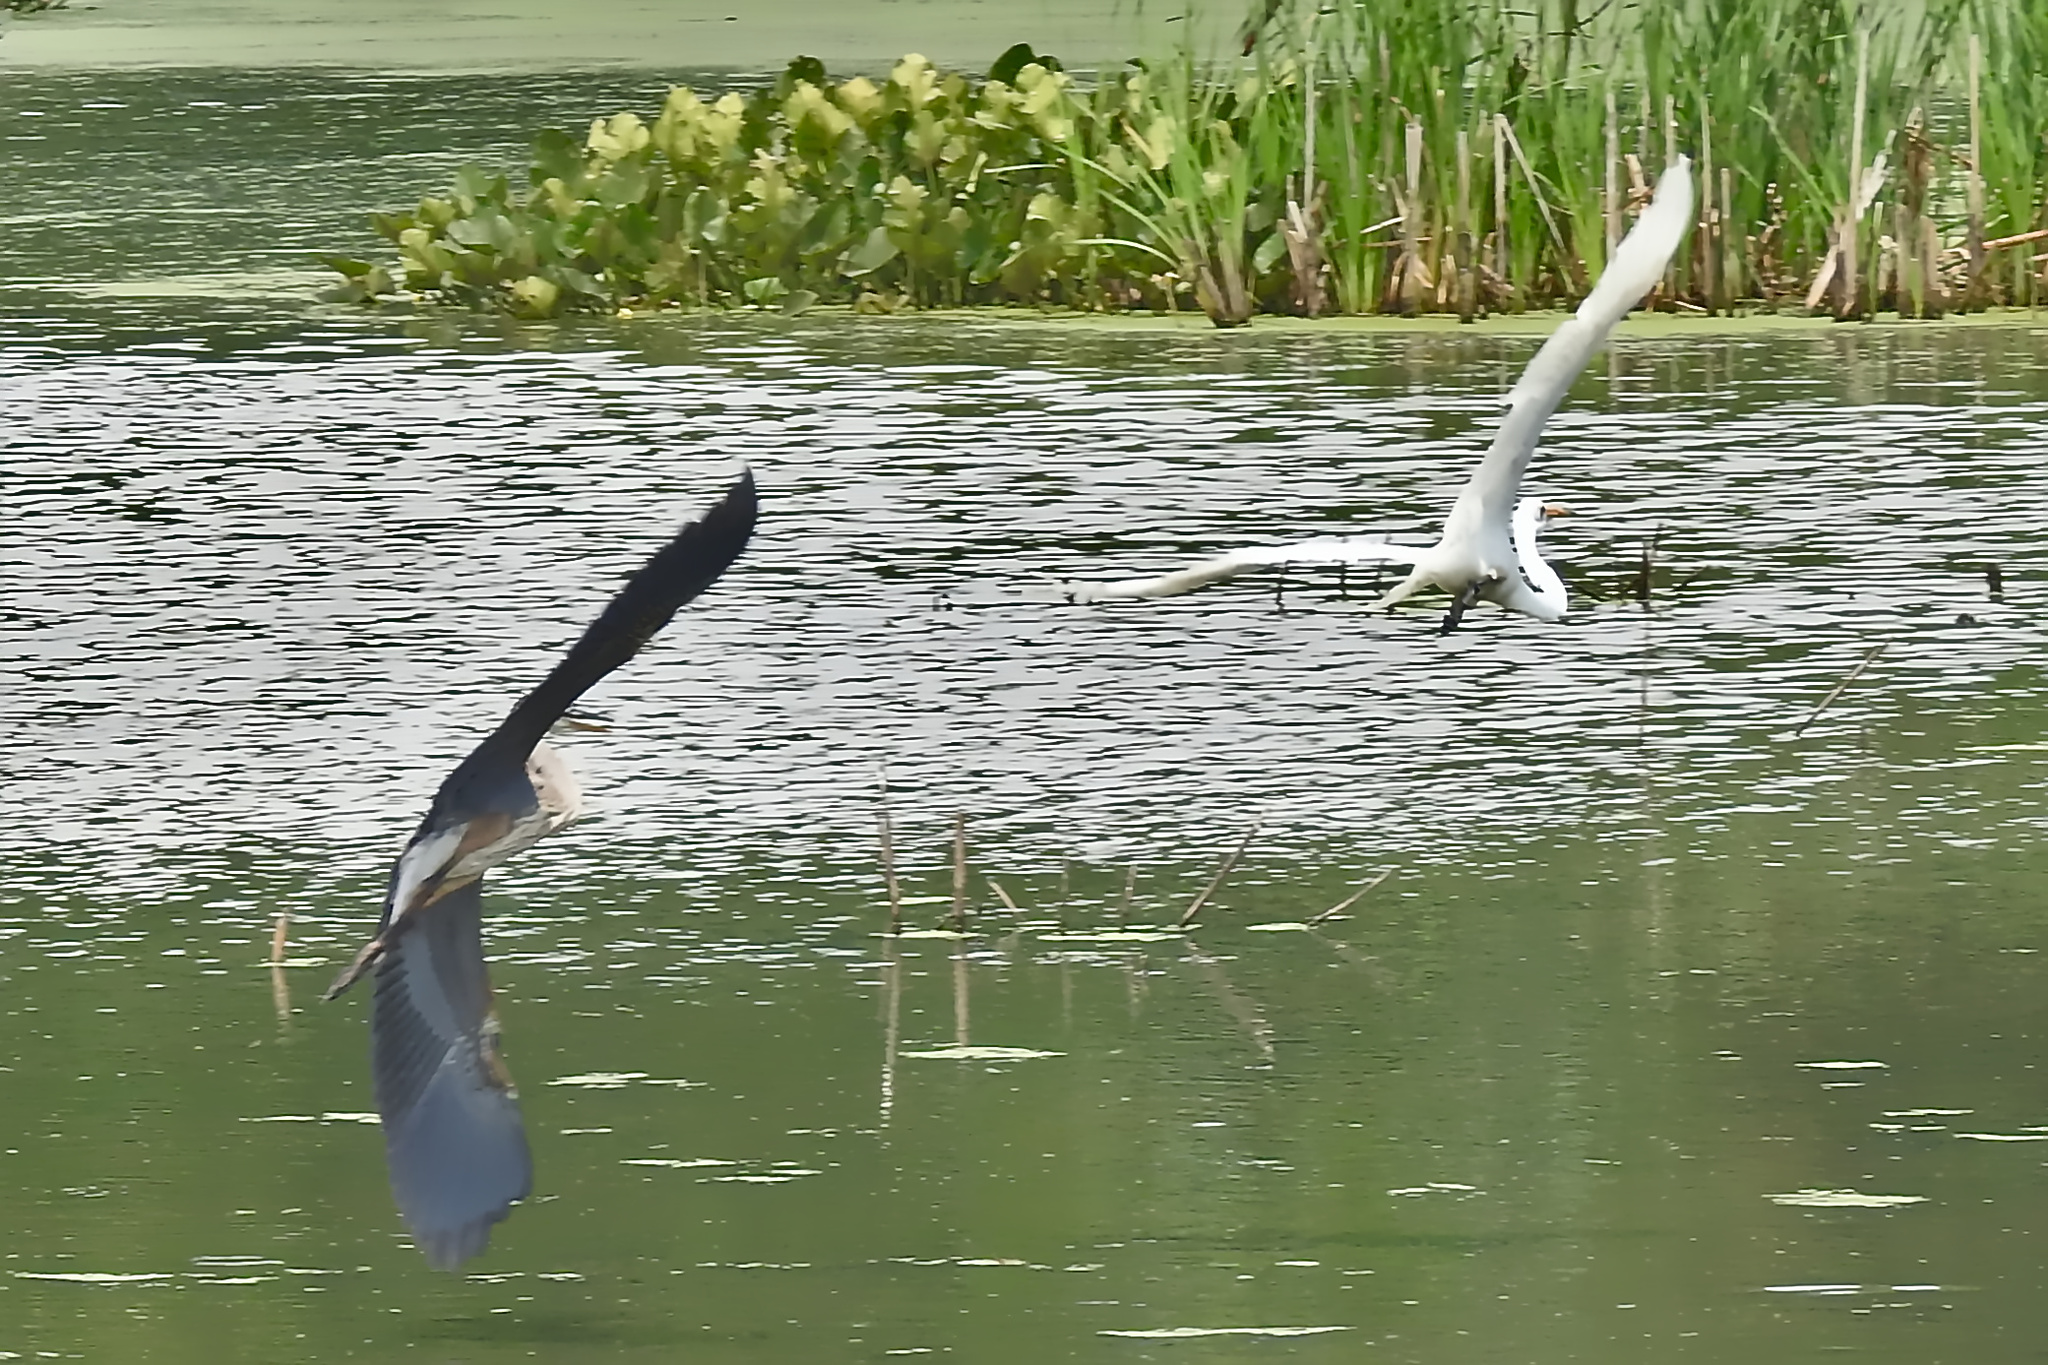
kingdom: Animalia
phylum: Chordata
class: Aves
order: Pelecaniformes
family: Ardeidae
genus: Ardea
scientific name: Ardea alba
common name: Great egret
